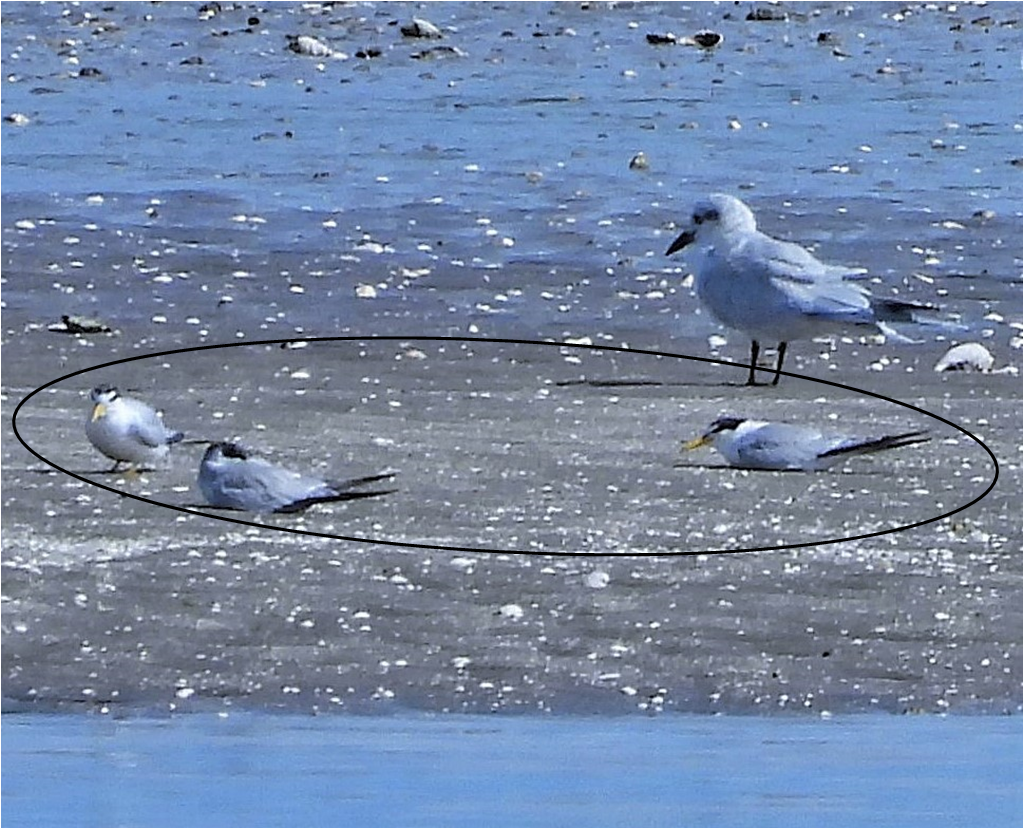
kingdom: Animalia
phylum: Chordata
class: Aves
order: Charadriiformes
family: Laridae
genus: Sternula
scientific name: Sternula superciliaris
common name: Yellow-billed tern
